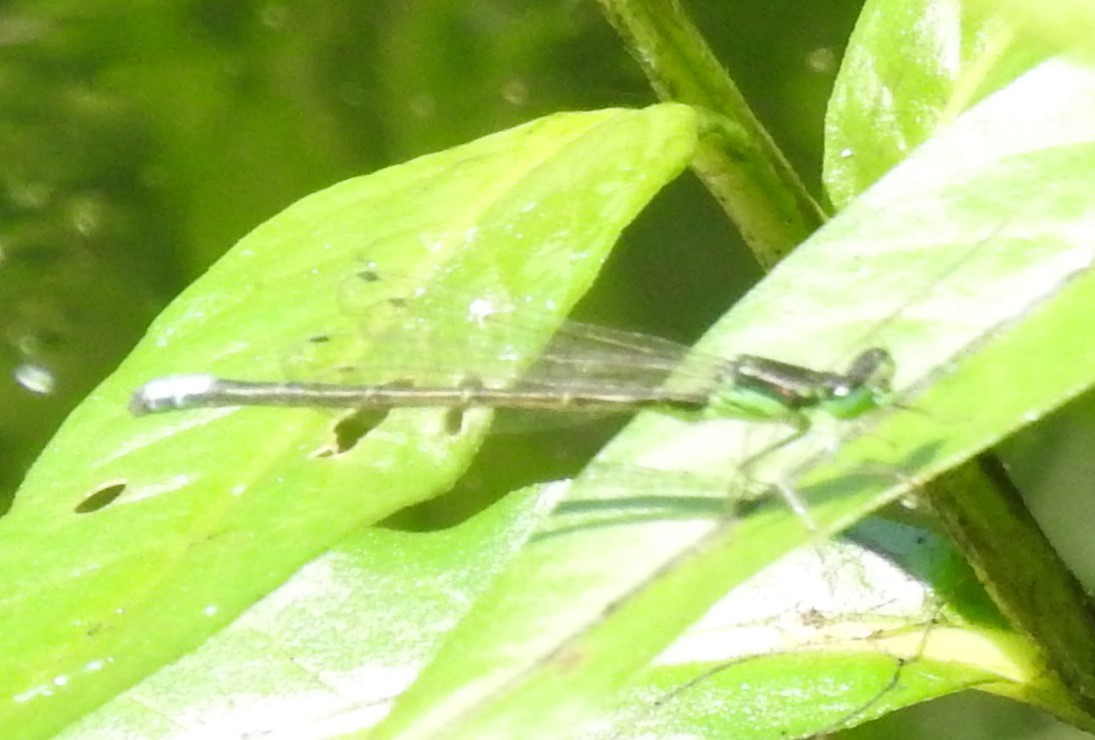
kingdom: Animalia
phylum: Arthropoda
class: Insecta
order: Odonata
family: Coenagrionidae
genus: Ischnura
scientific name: Ischnura verticalis
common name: Eastern forktail
